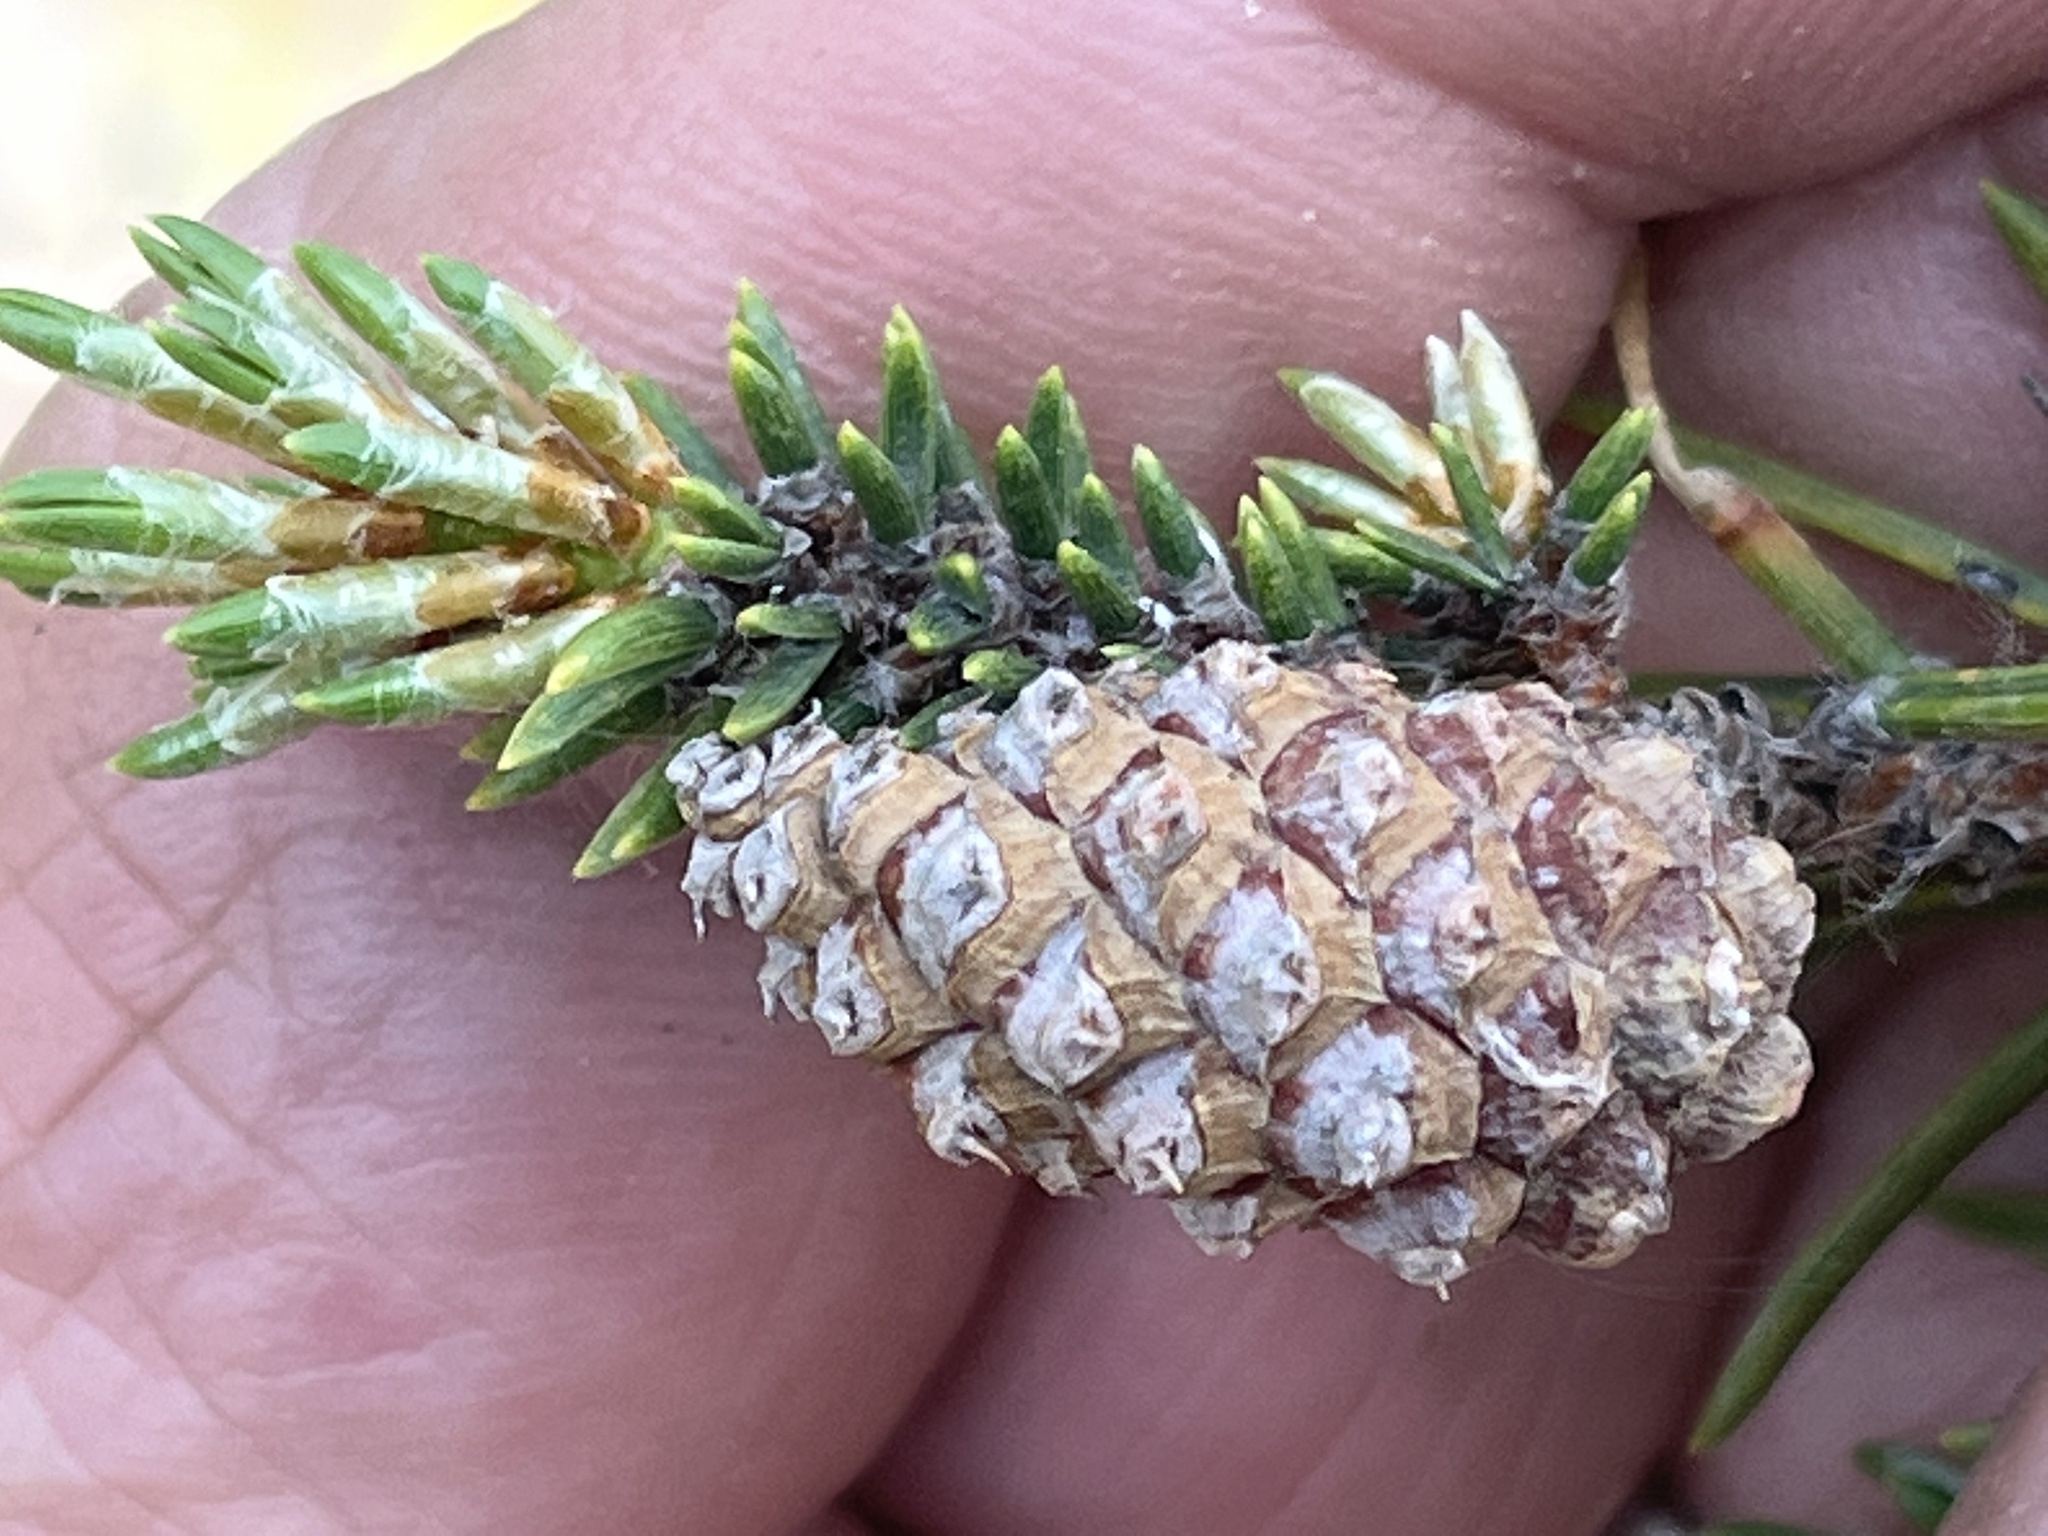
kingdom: Plantae
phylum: Tracheophyta
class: Pinopsida
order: Pinales
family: Pinaceae
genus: Pinus
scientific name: Pinus banksiana
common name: Jack pine
